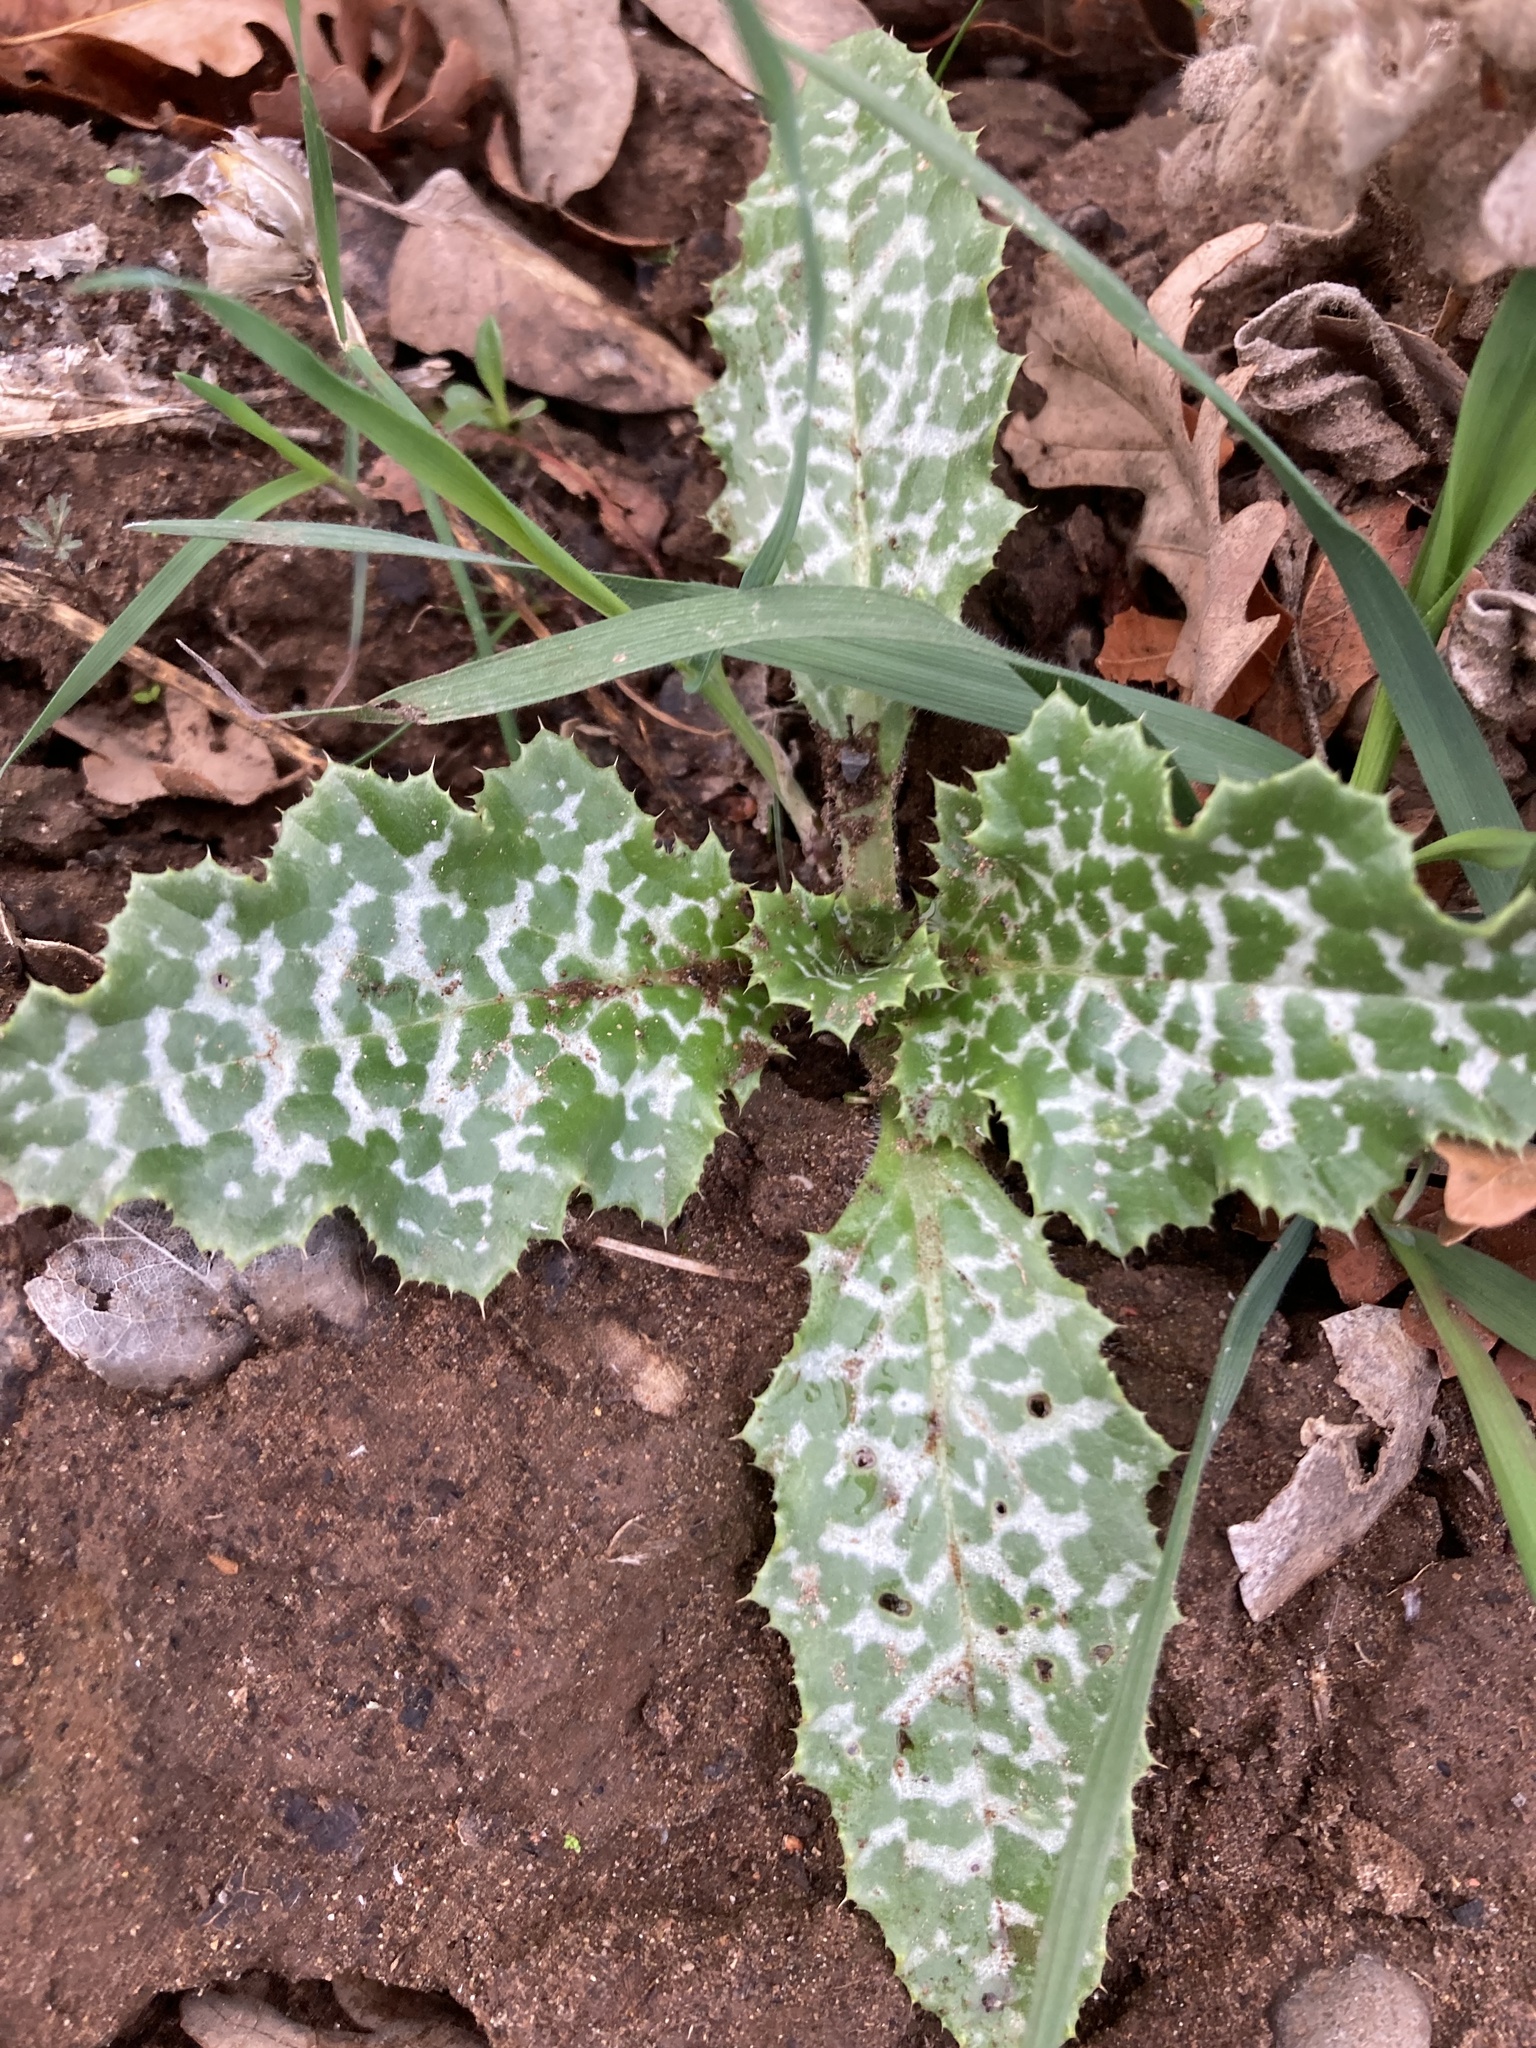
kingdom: Plantae
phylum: Tracheophyta
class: Magnoliopsida
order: Asterales
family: Asteraceae
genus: Silybum
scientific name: Silybum marianum
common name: Milk thistle
